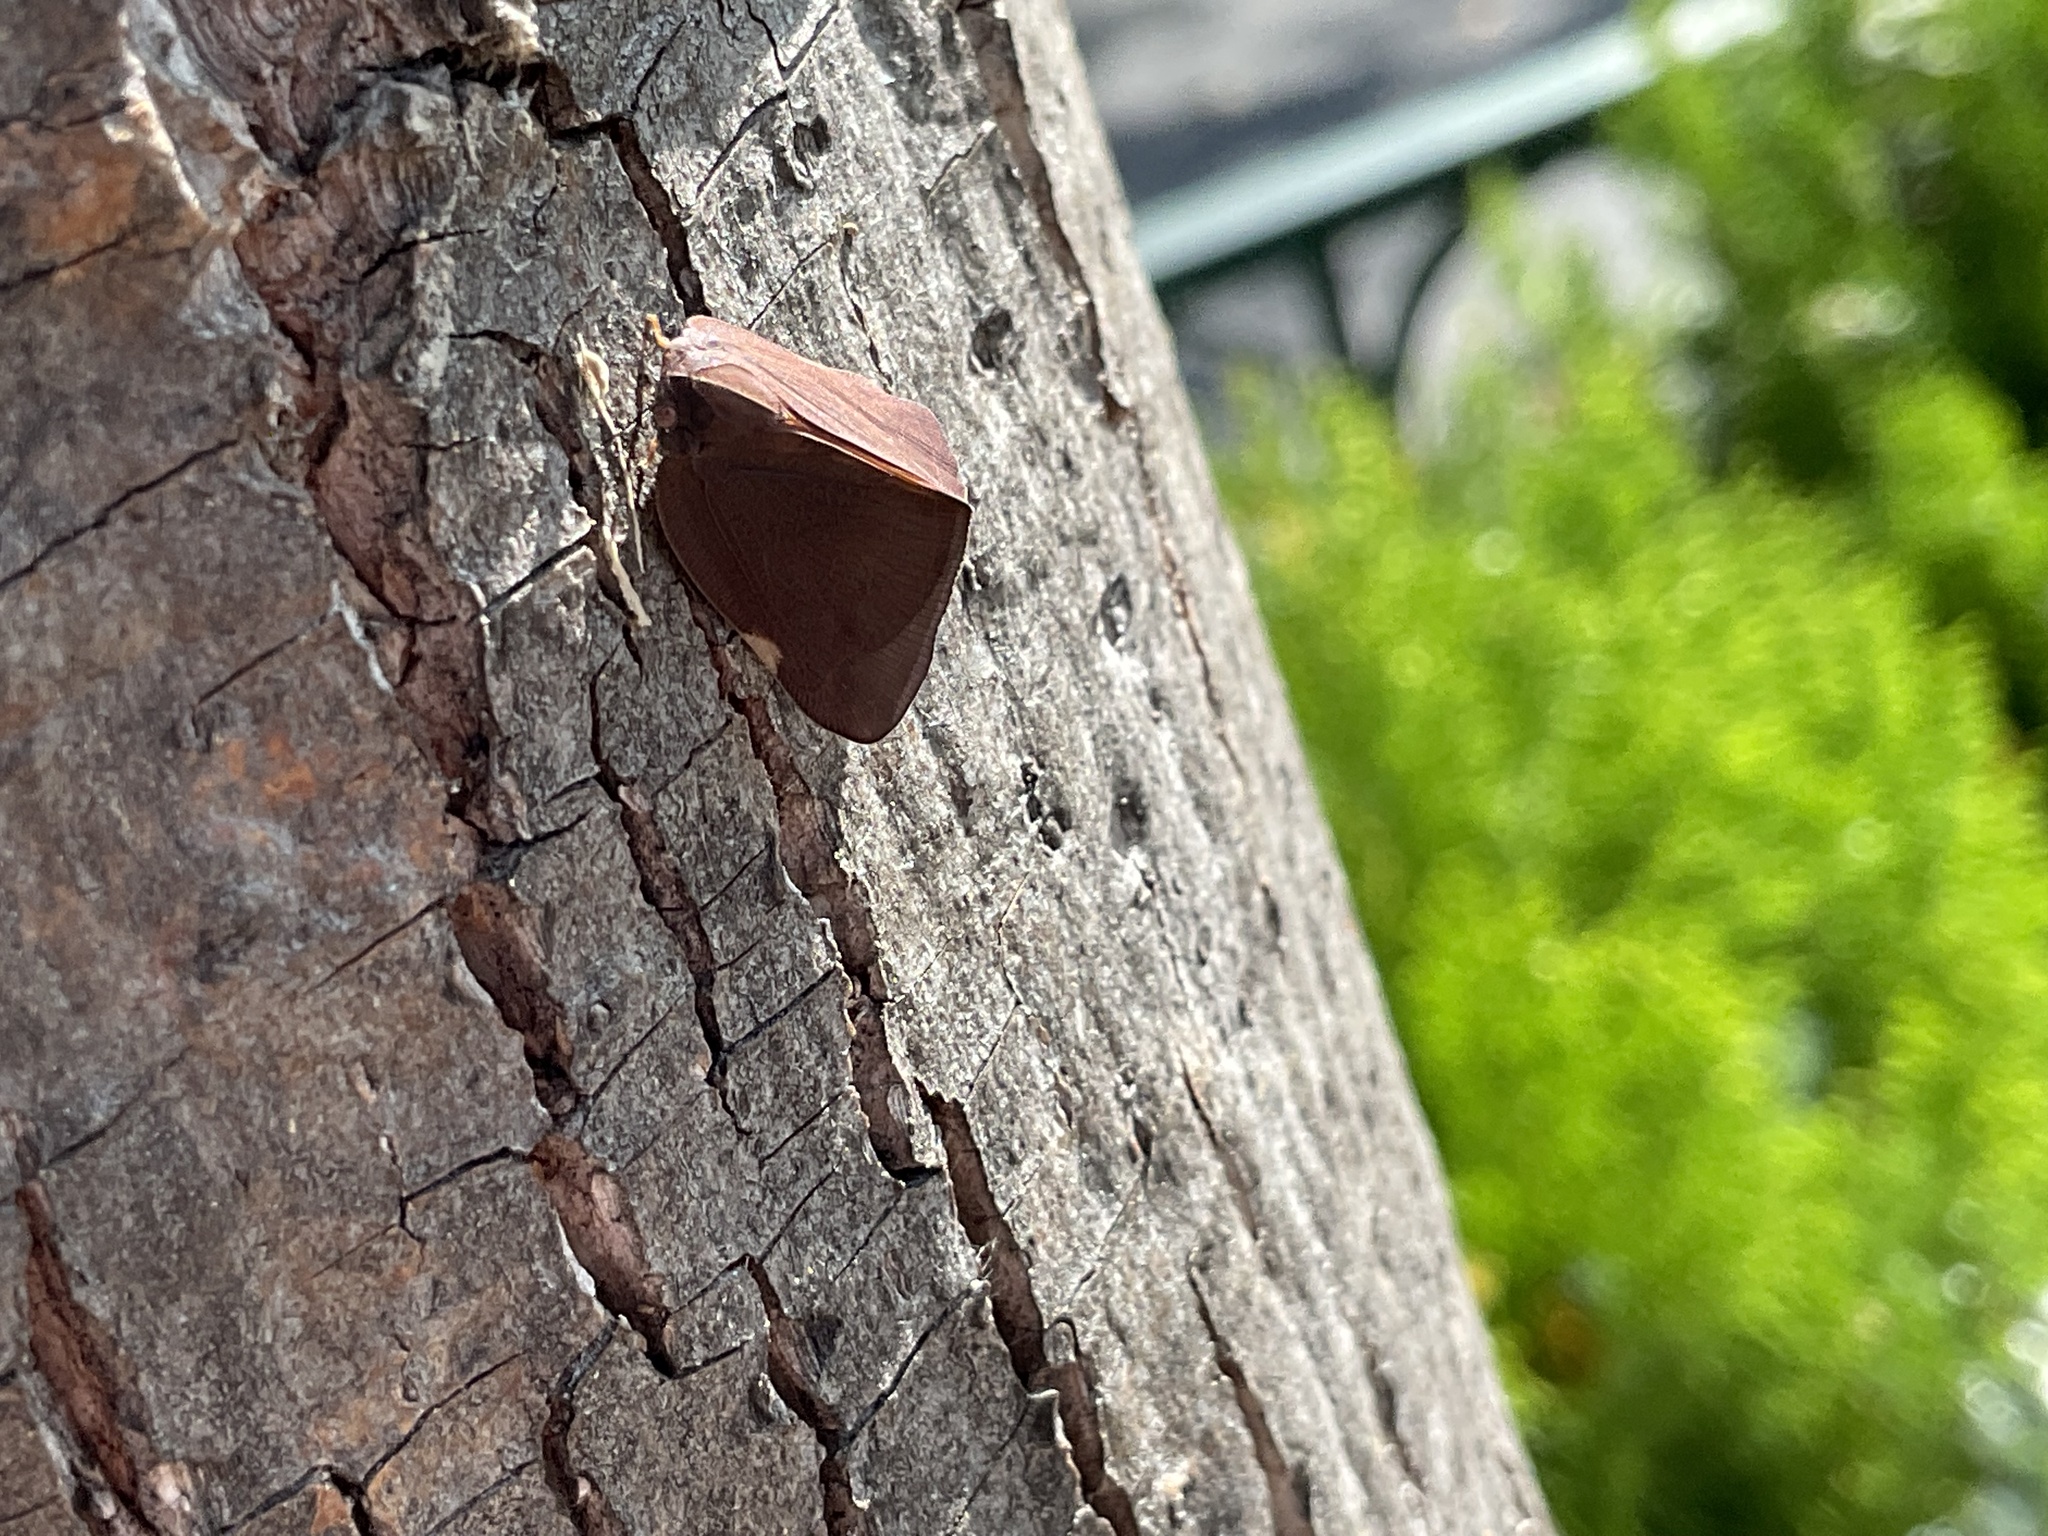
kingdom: Animalia
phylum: Arthropoda
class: Insecta
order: Hemiptera
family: Ricaniidae
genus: Ricania
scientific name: Ricania shantungensis
